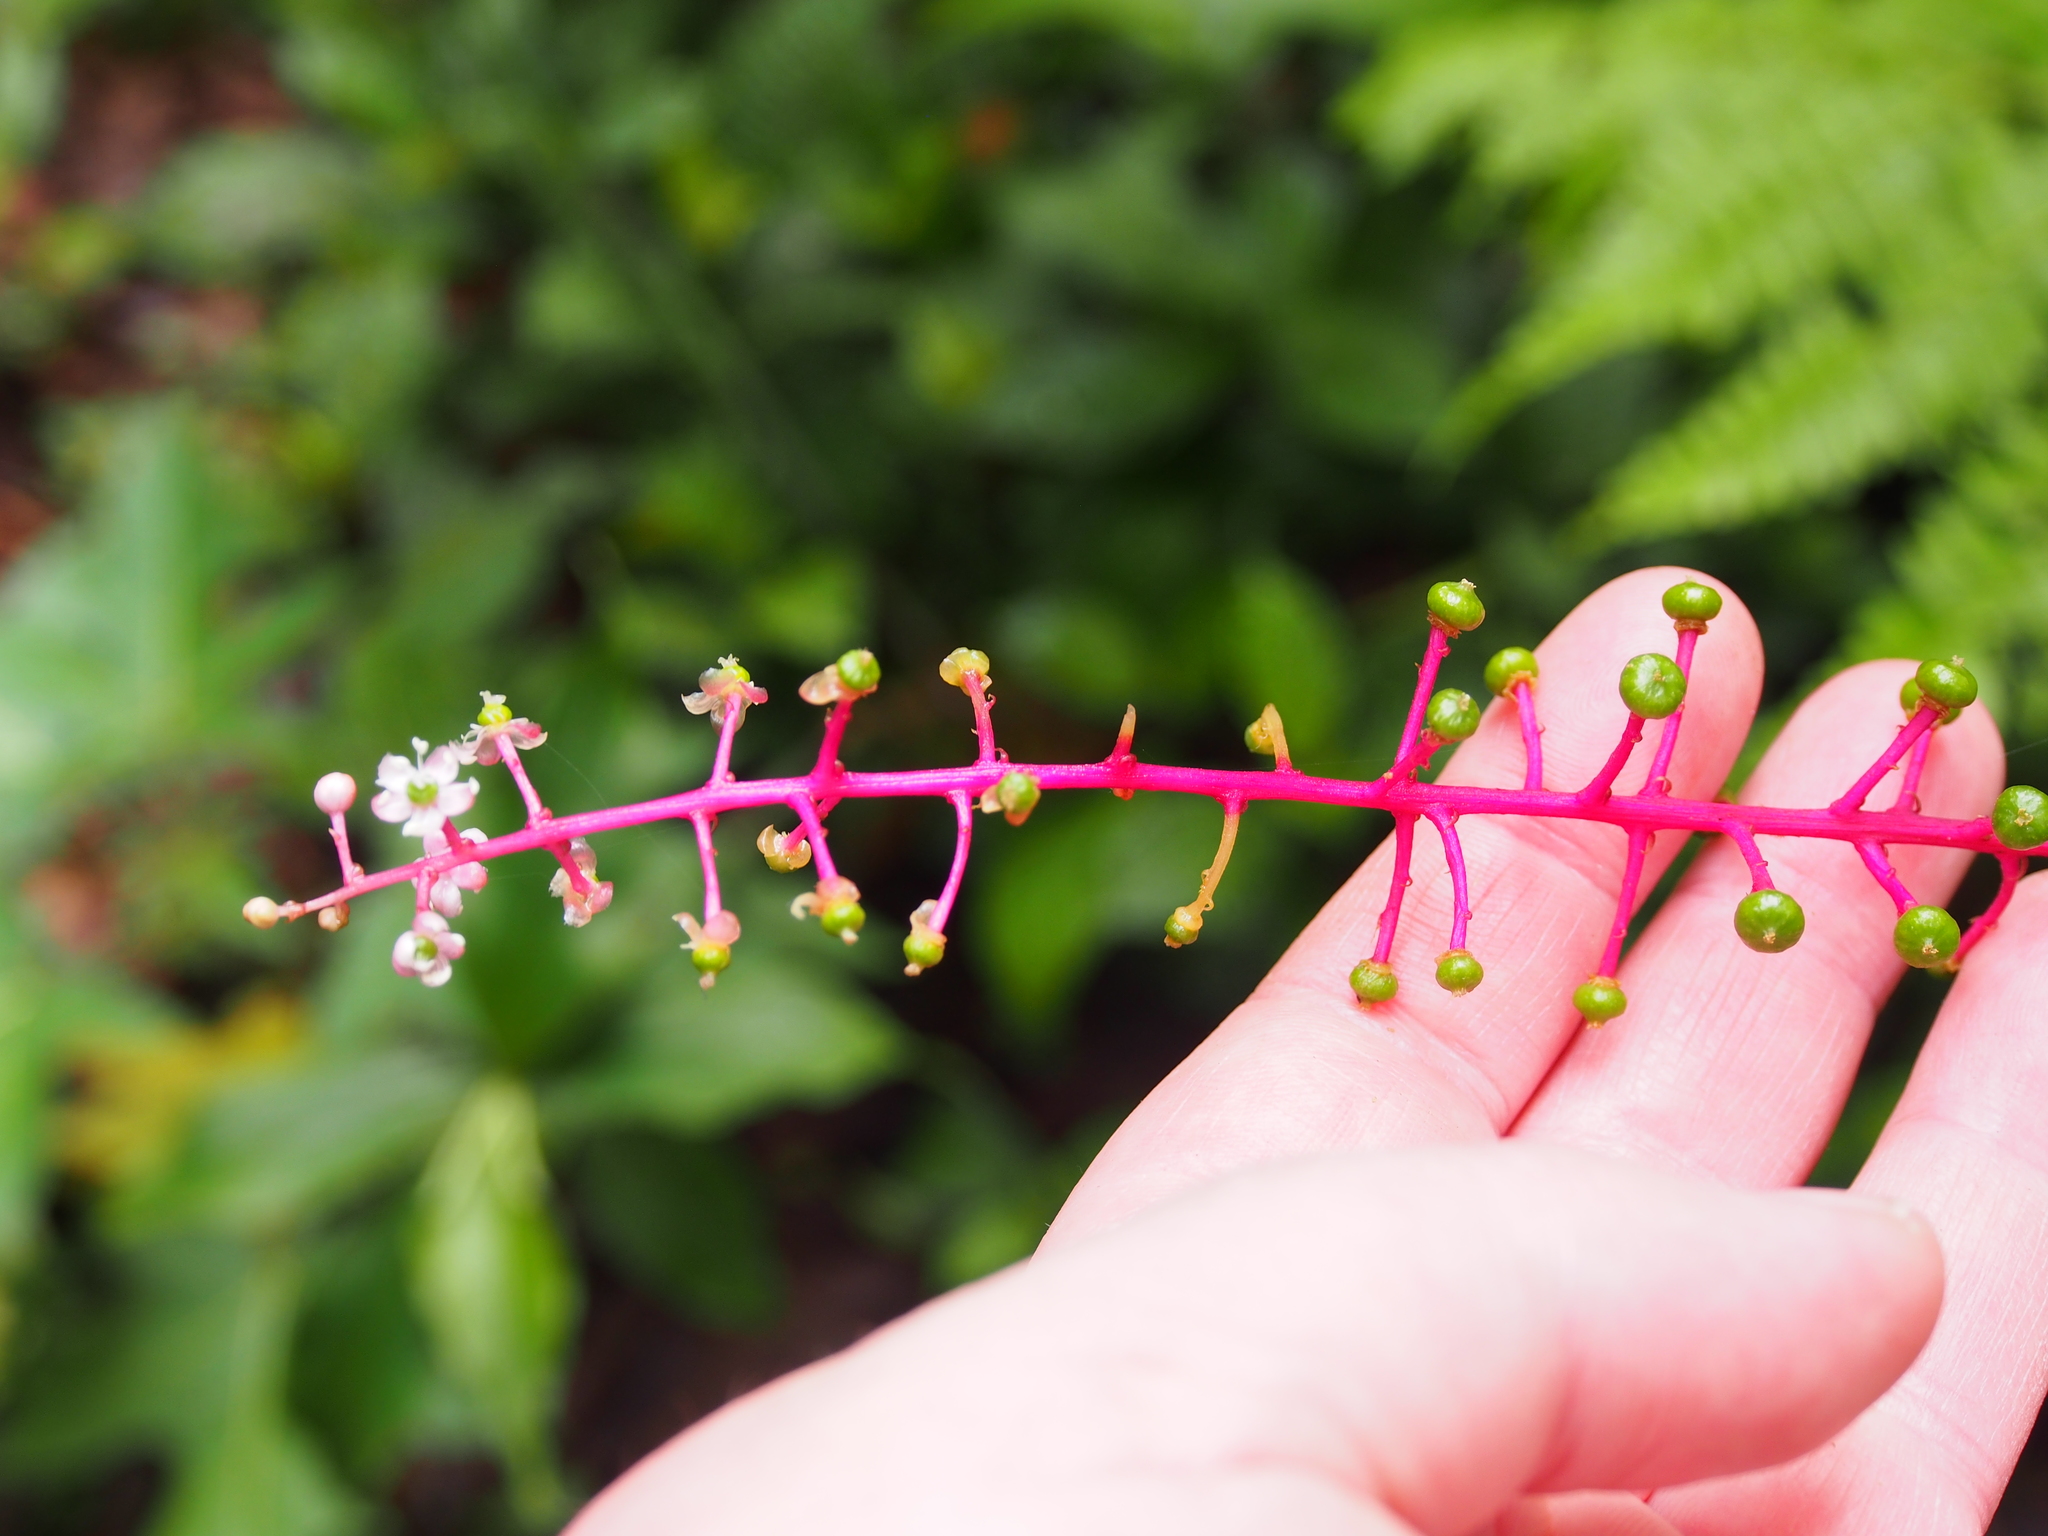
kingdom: Plantae
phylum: Tracheophyta
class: Magnoliopsida
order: Caryophyllales
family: Phytolaccaceae
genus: Phytolacca
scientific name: Phytolacca rivinoides
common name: Venezuelan pokeweed
